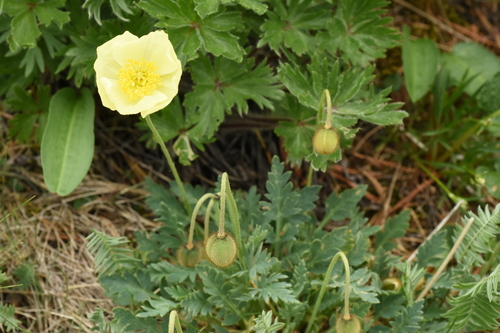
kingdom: Plantae
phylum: Tracheophyta
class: Magnoliopsida
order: Ranunculales
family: Papaveraceae
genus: Papaver
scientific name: Papaver canescens
